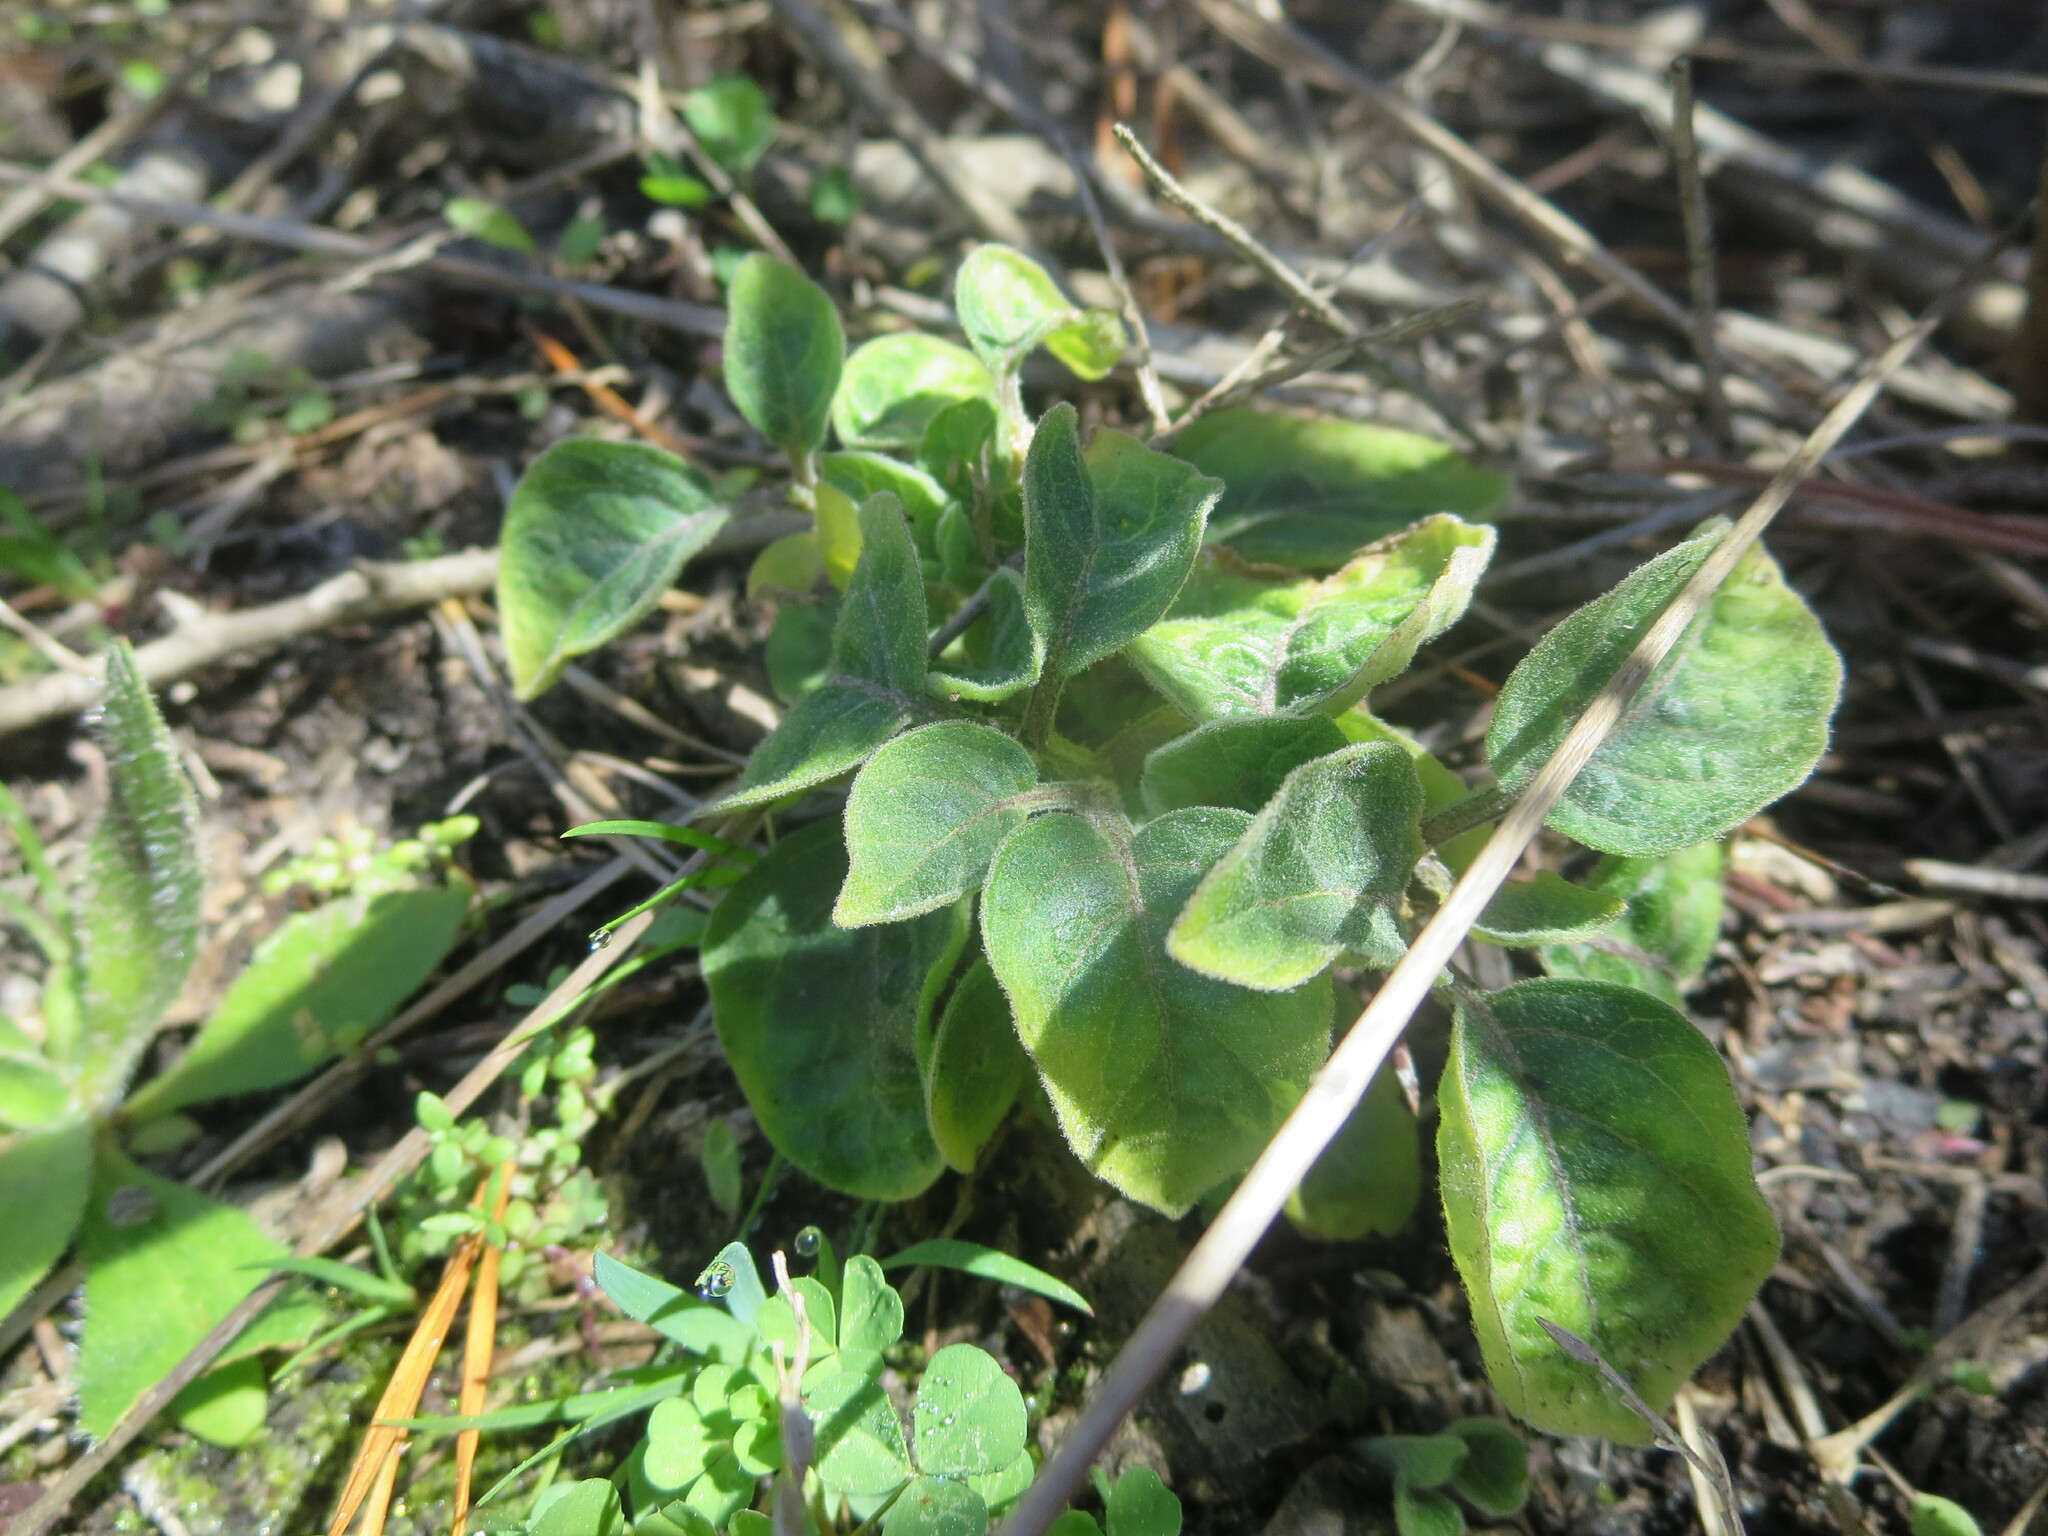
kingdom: Plantae
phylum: Tracheophyta
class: Magnoliopsida
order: Solanales
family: Solanaceae
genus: Physalis
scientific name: Physalis walteri
